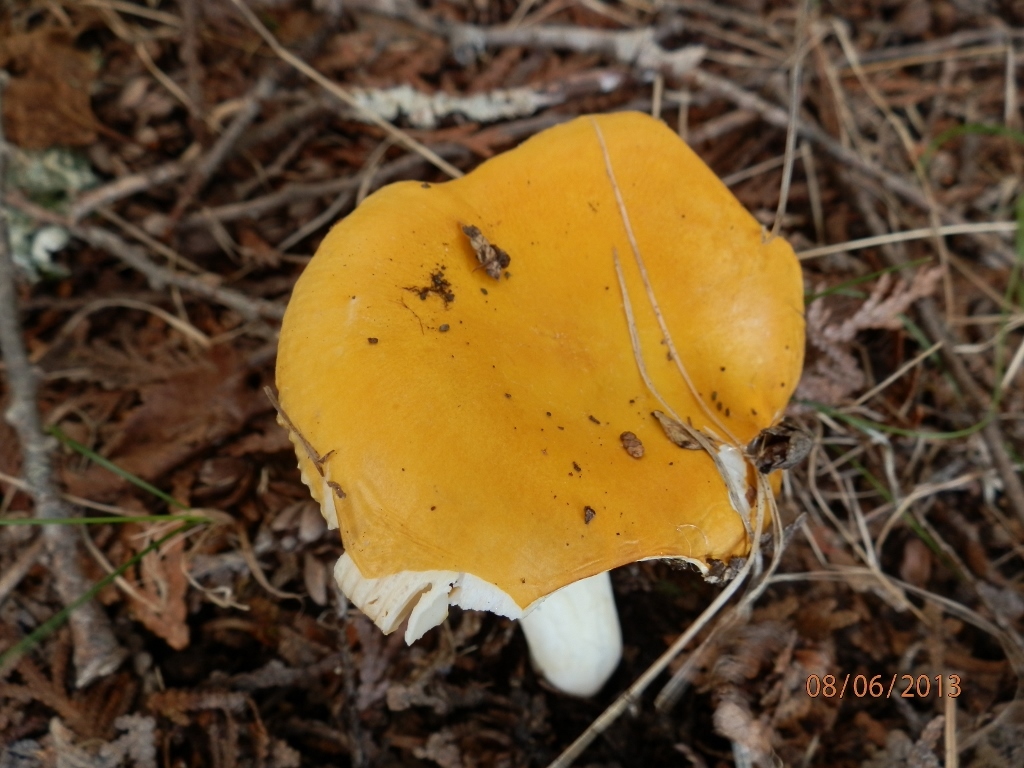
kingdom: Fungi
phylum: Basidiomycota
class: Agaricomycetes
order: Russulales
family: Russulaceae
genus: Russula
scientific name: Russula ochroleucoides
